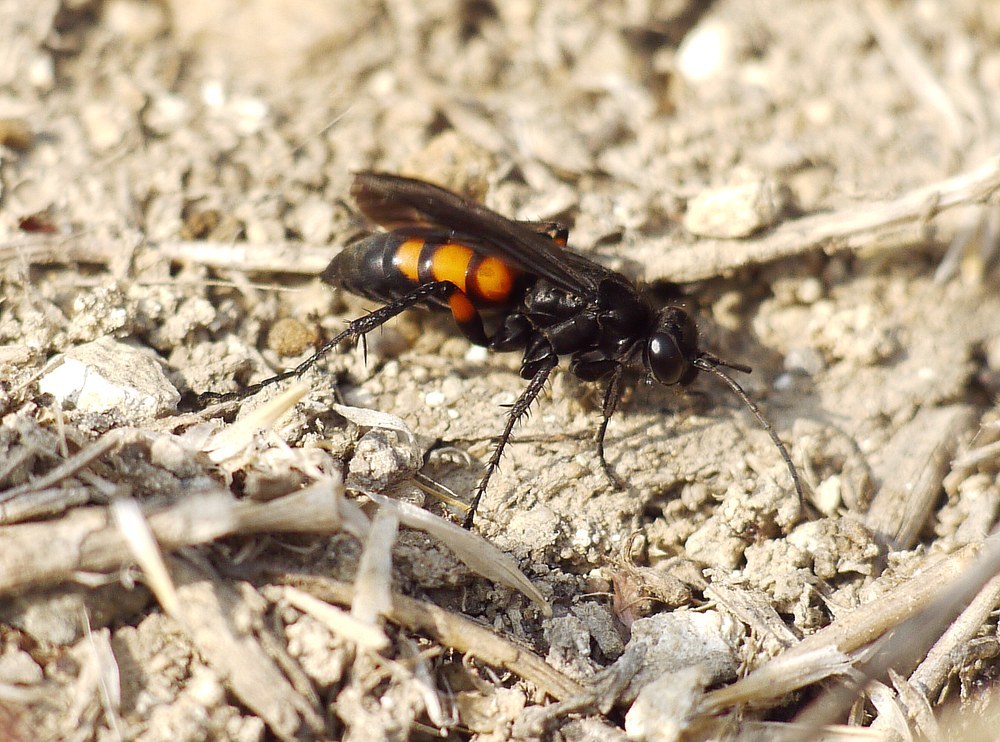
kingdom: Animalia
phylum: Arthropoda
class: Insecta
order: Hymenoptera
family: Pompilidae
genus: Anoplius
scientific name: Anoplius viaticus
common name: Black banded spider wasp
